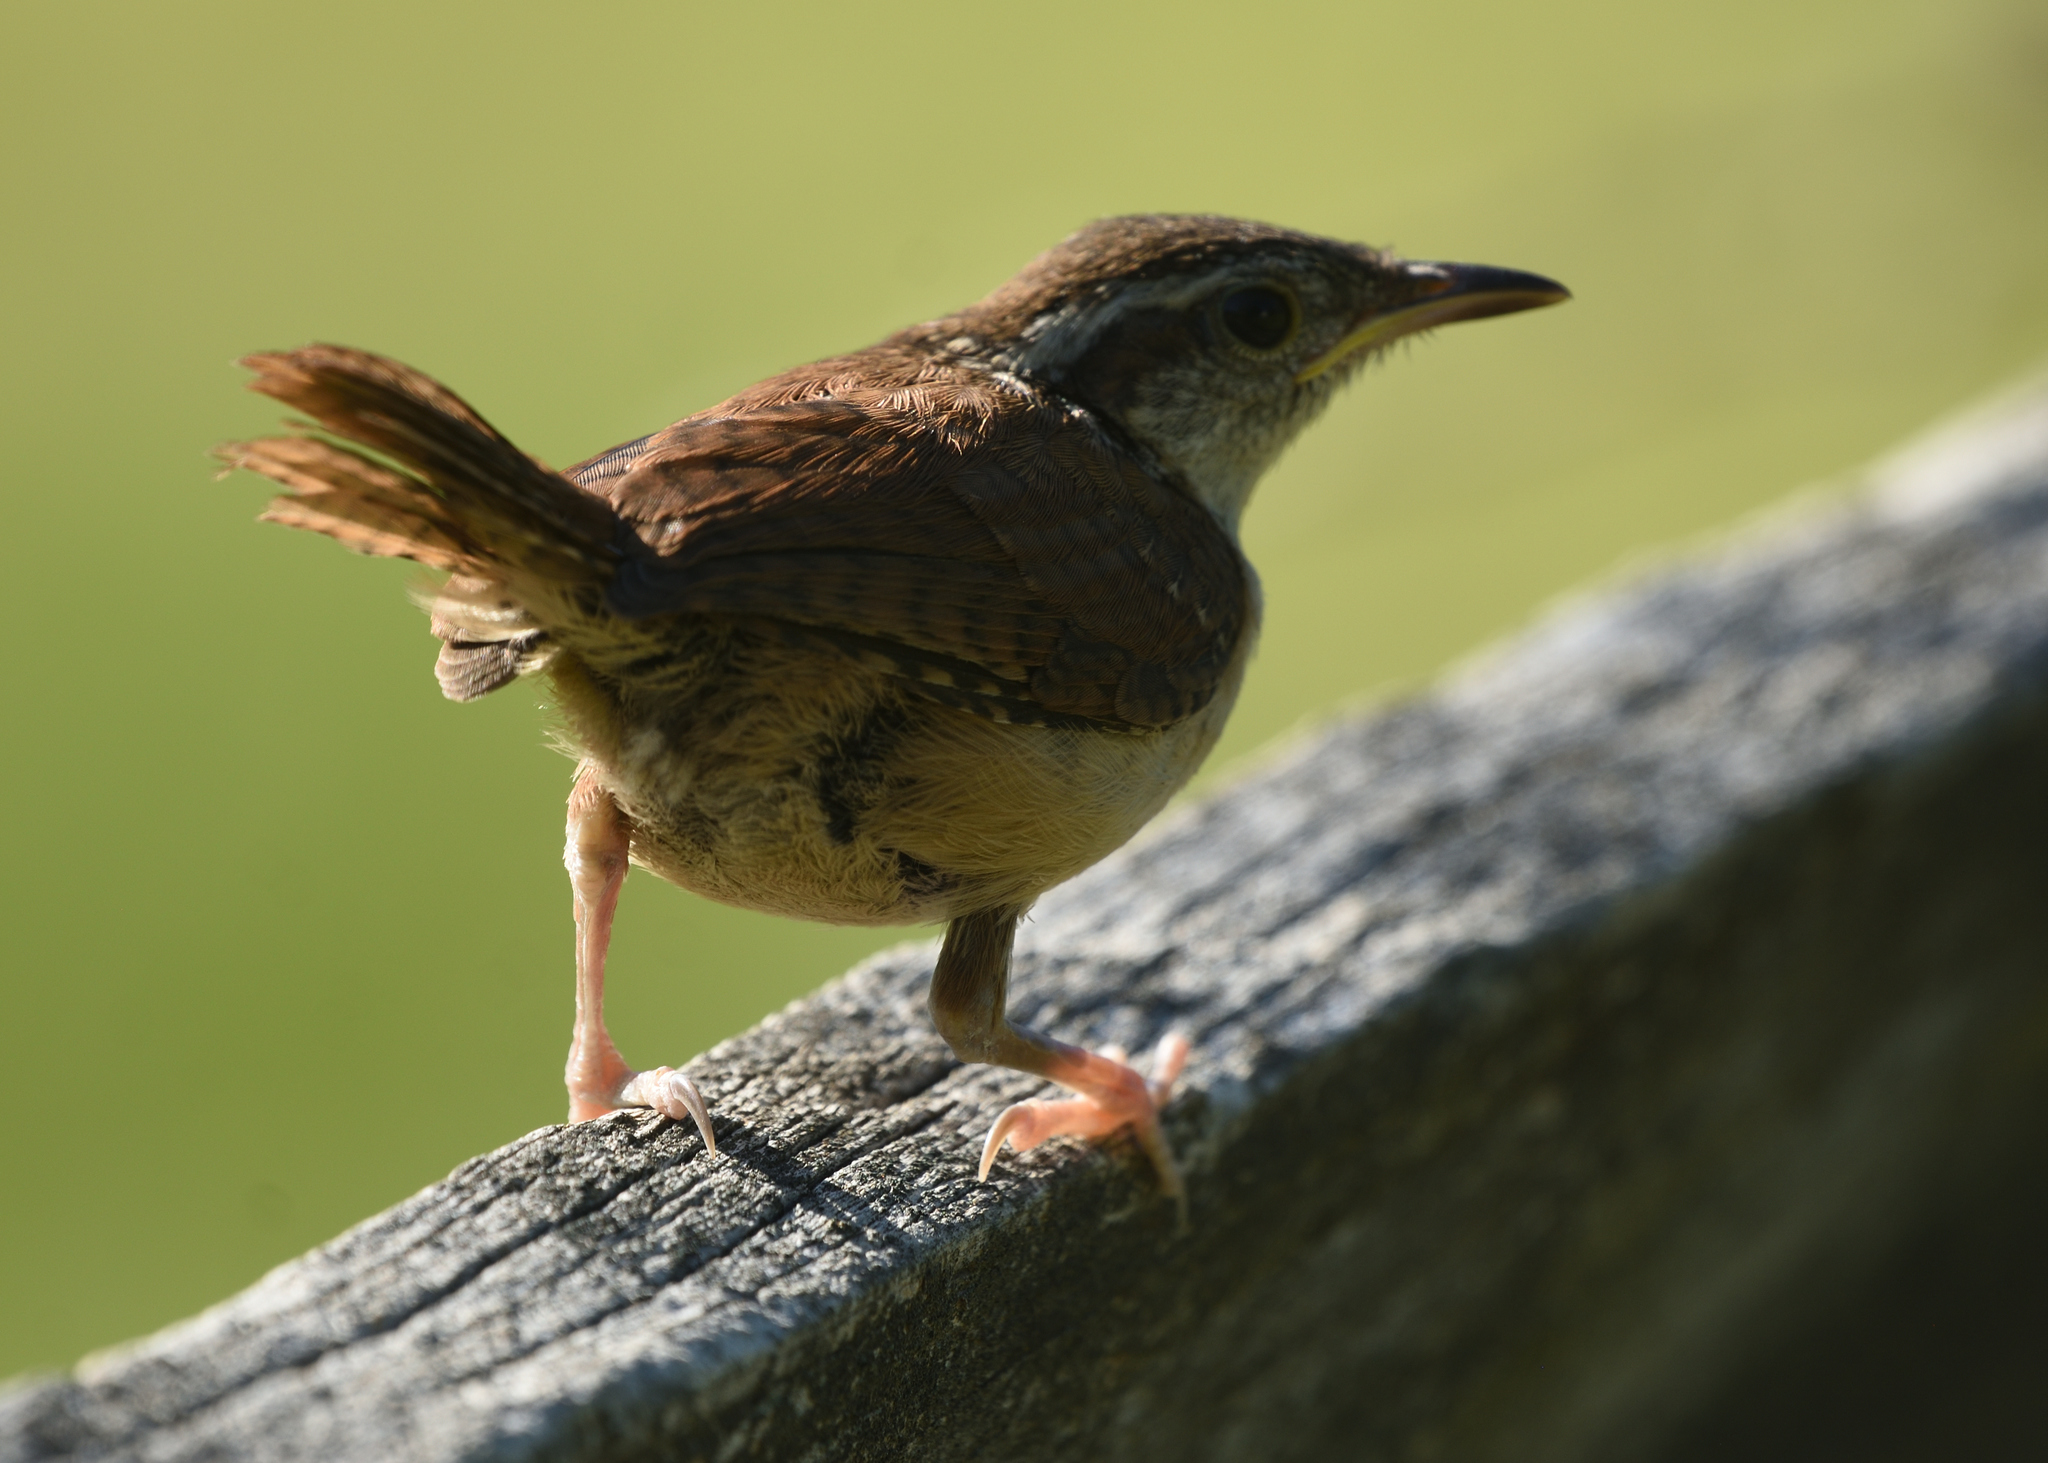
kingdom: Animalia
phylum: Chordata
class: Aves
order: Passeriformes
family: Troglodytidae
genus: Thryothorus
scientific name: Thryothorus ludovicianus
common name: Carolina wren
